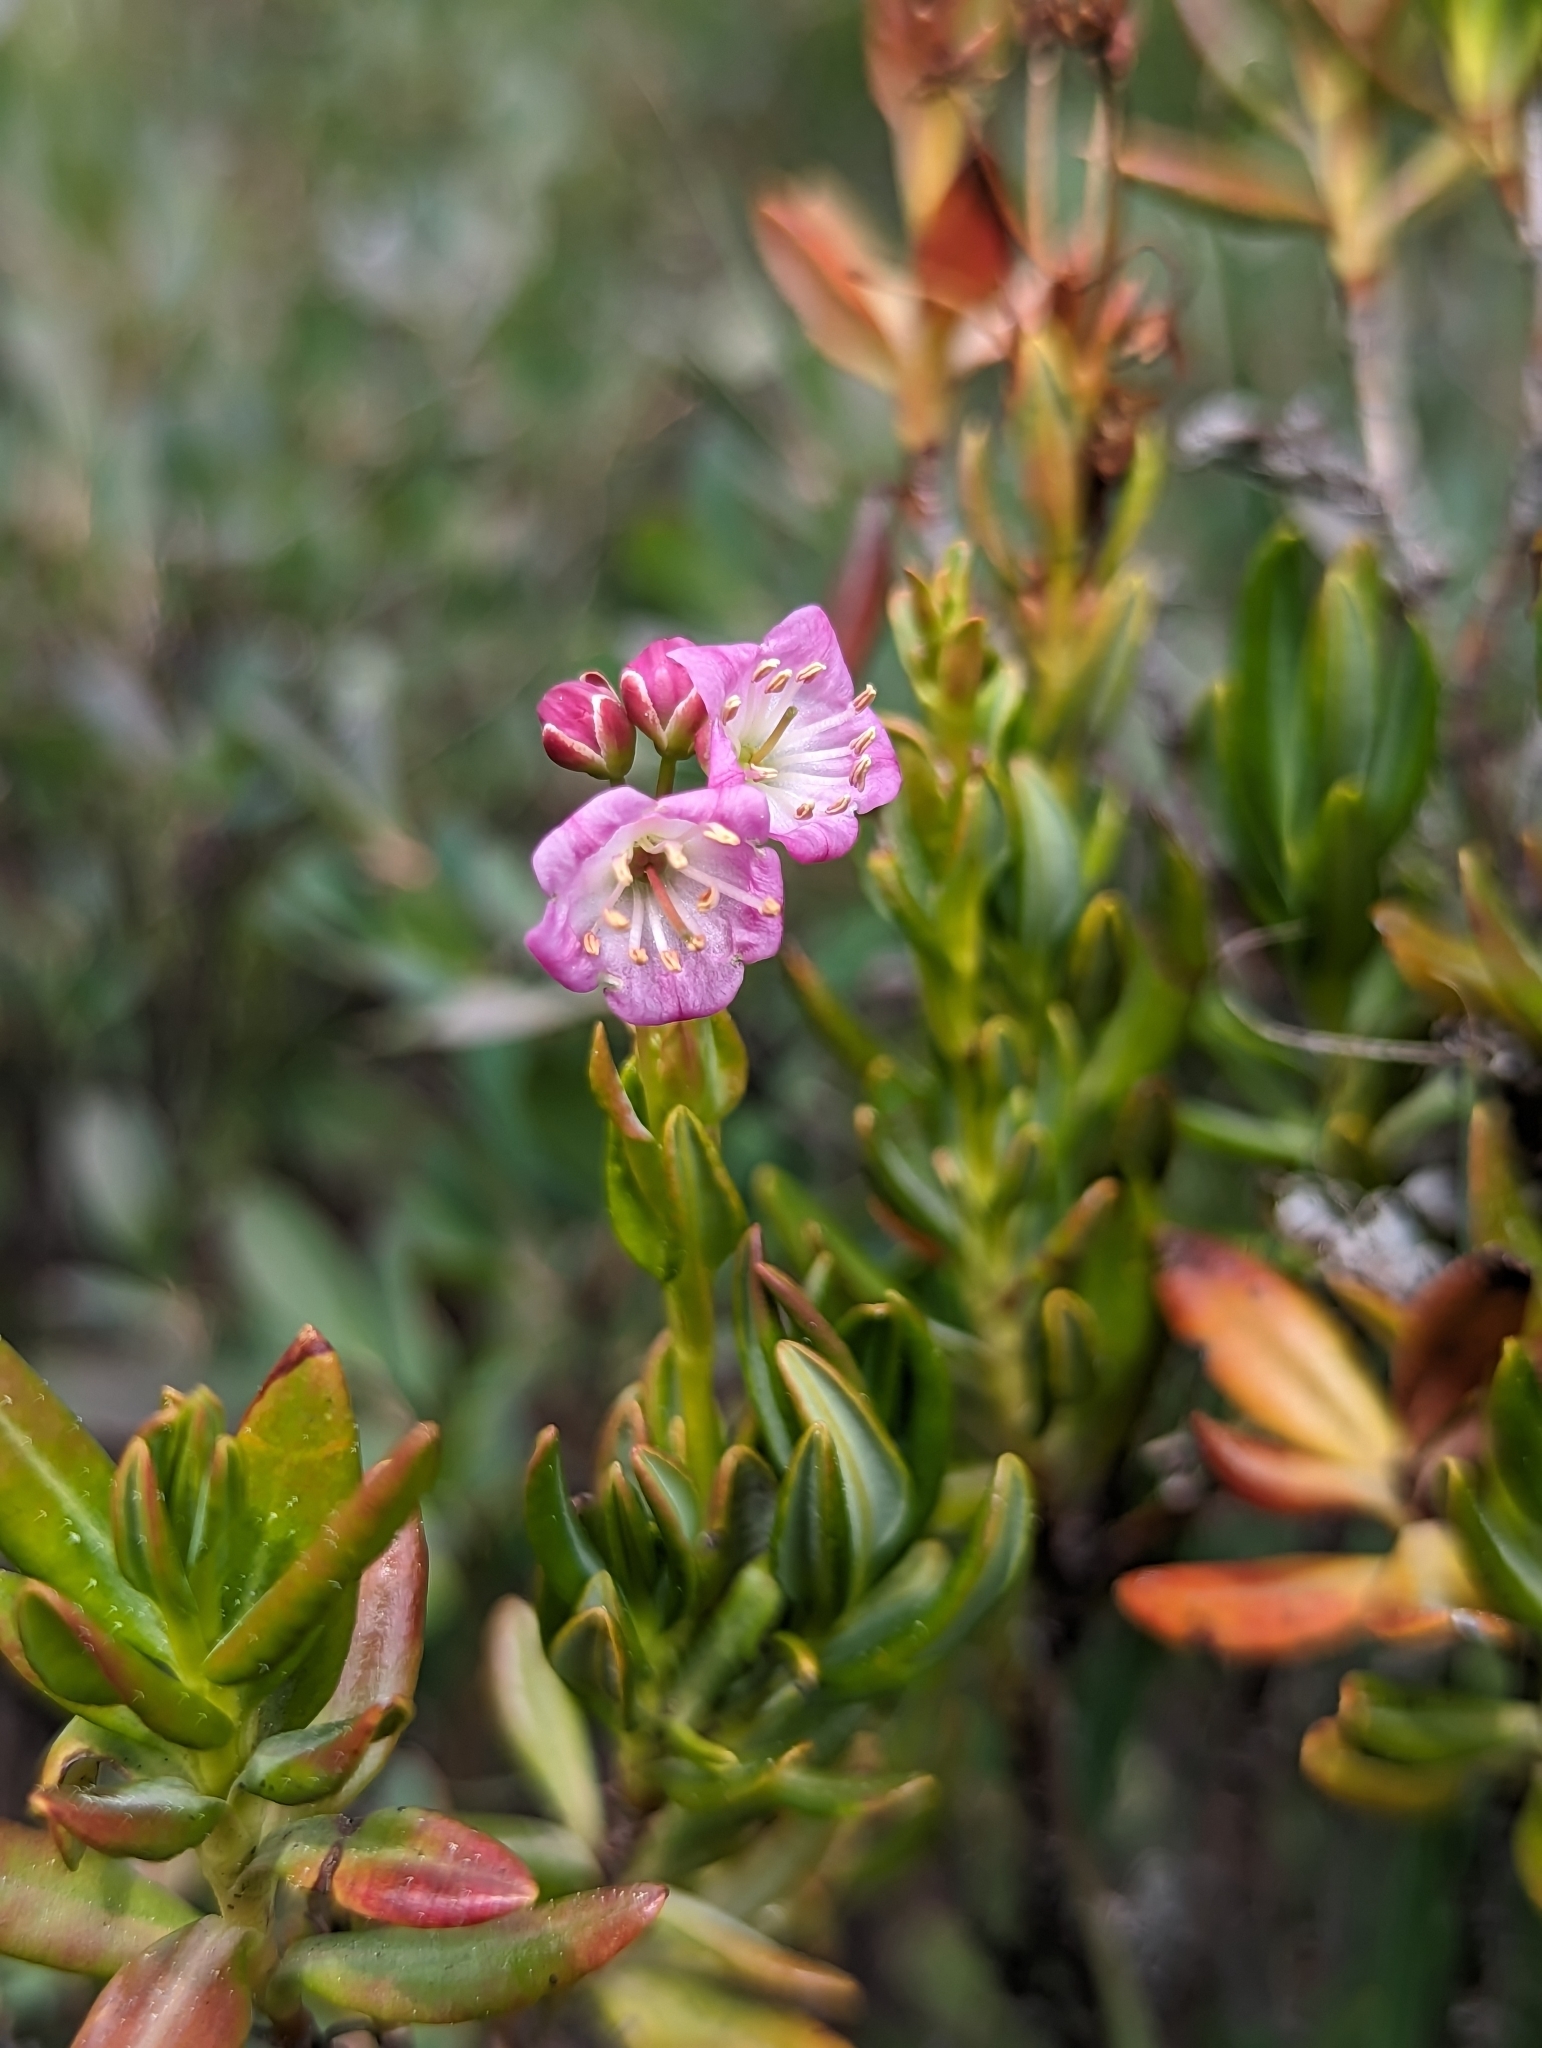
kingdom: Plantae
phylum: Tracheophyta
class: Magnoliopsida
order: Ericales
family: Ericaceae
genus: Kalmia
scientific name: Kalmia microphylla
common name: Alpine bog laurel
